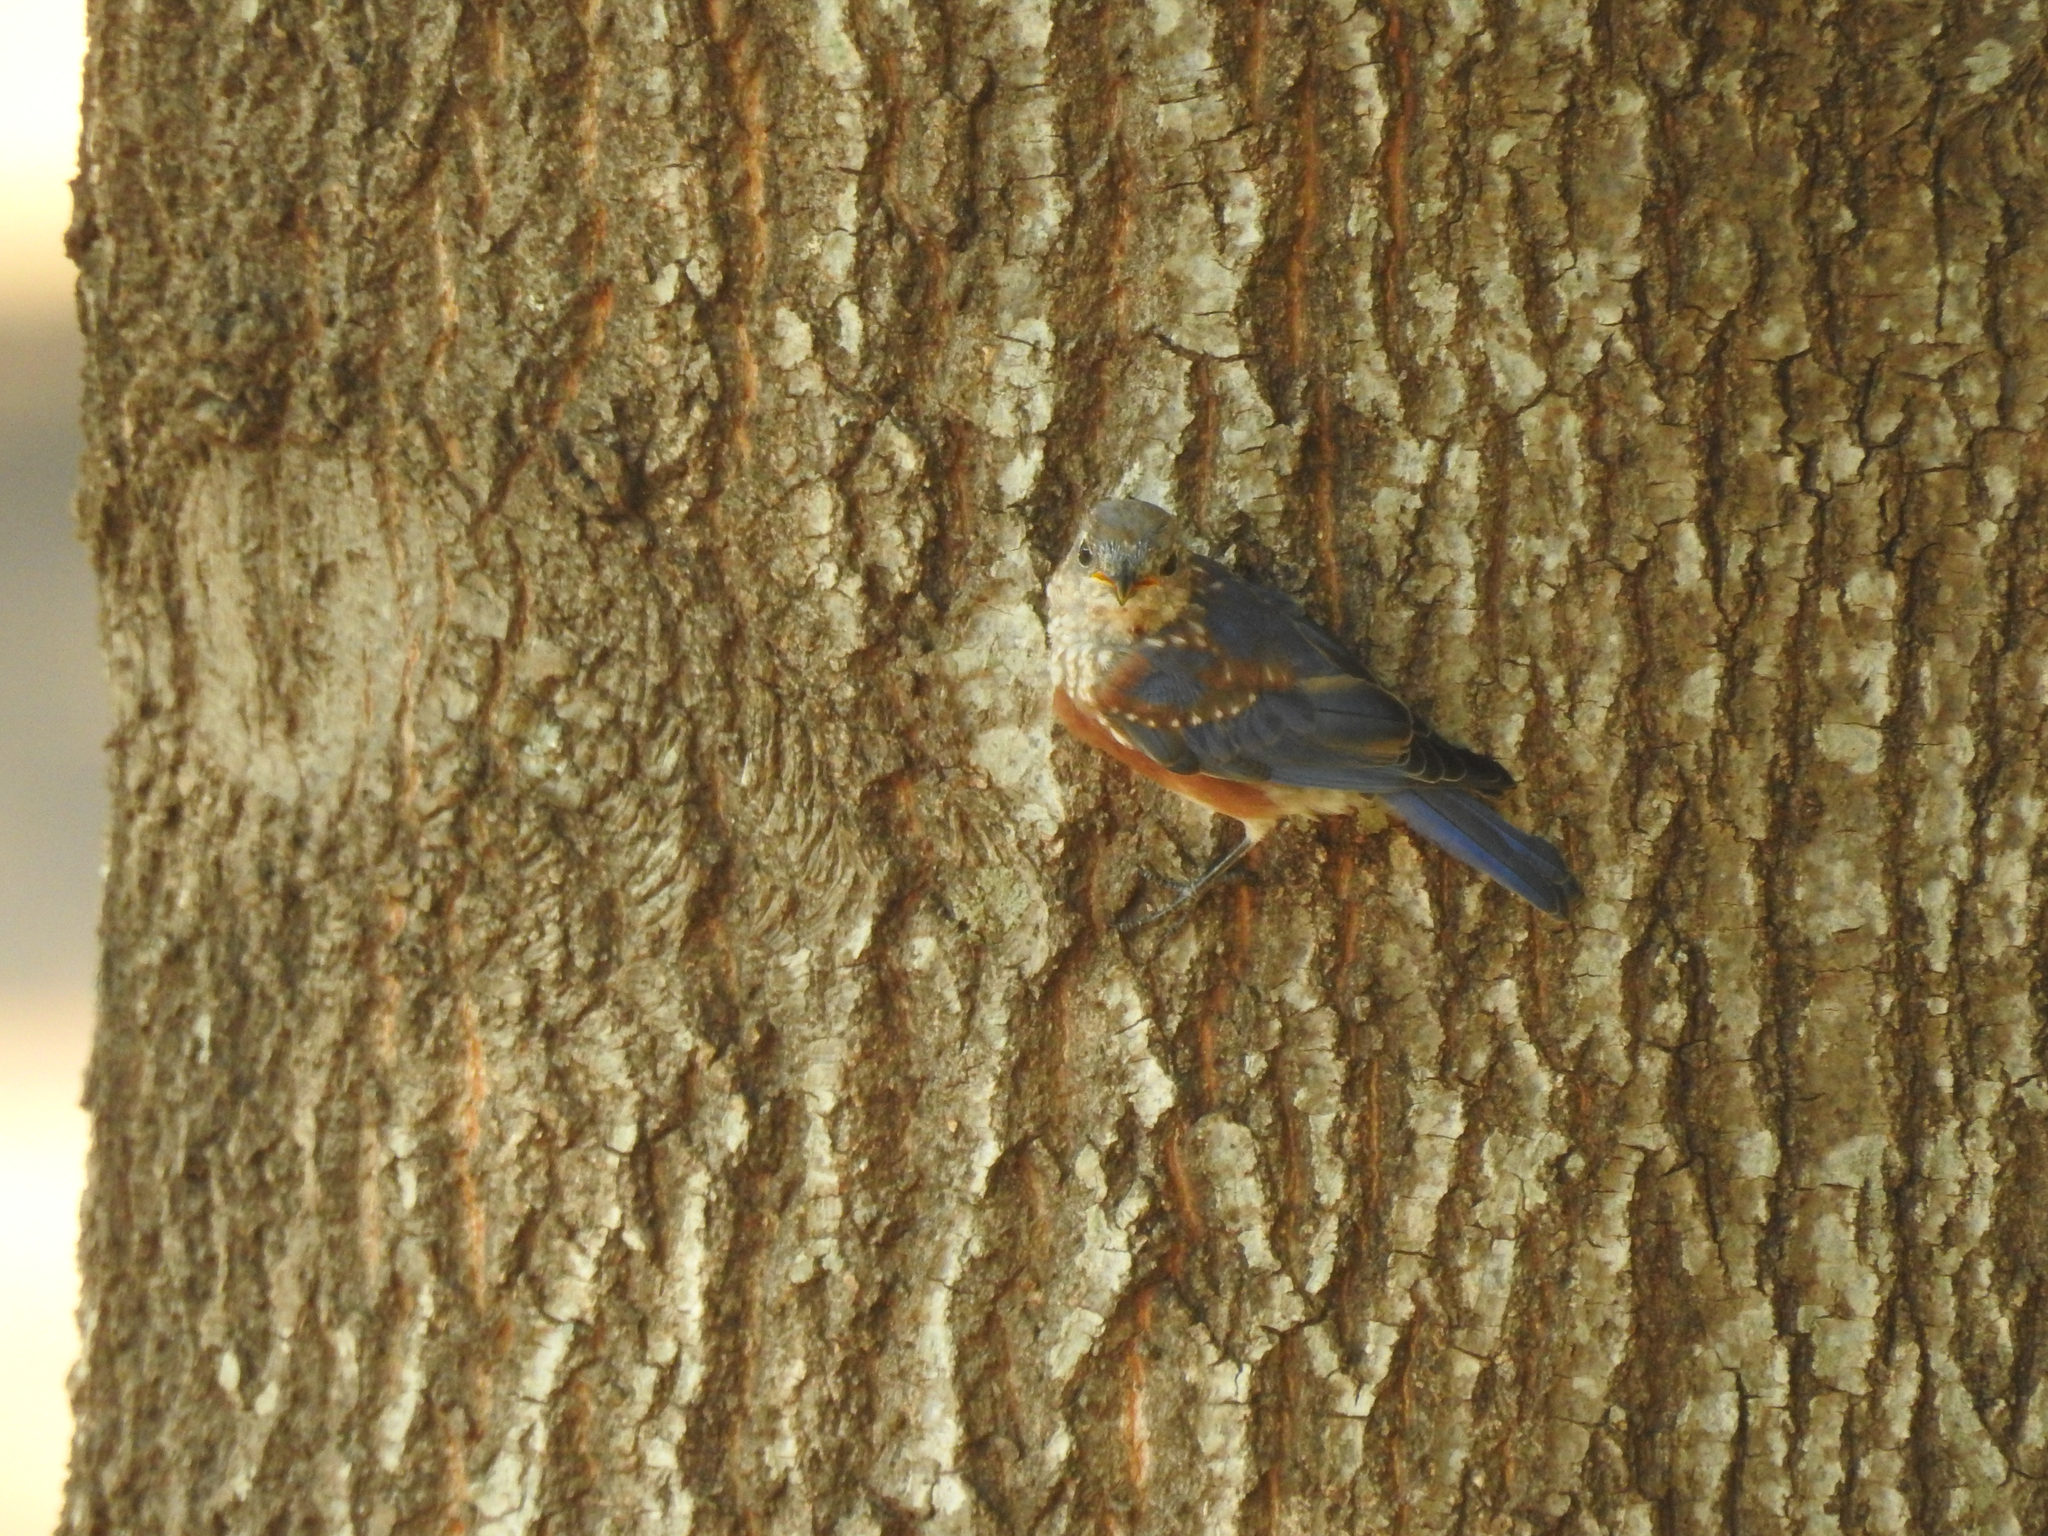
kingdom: Animalia
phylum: Chordata
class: Aves
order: Passeriformes
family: Turdidae
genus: Sialia
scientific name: Sialia sialis
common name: Eastern bluebird
